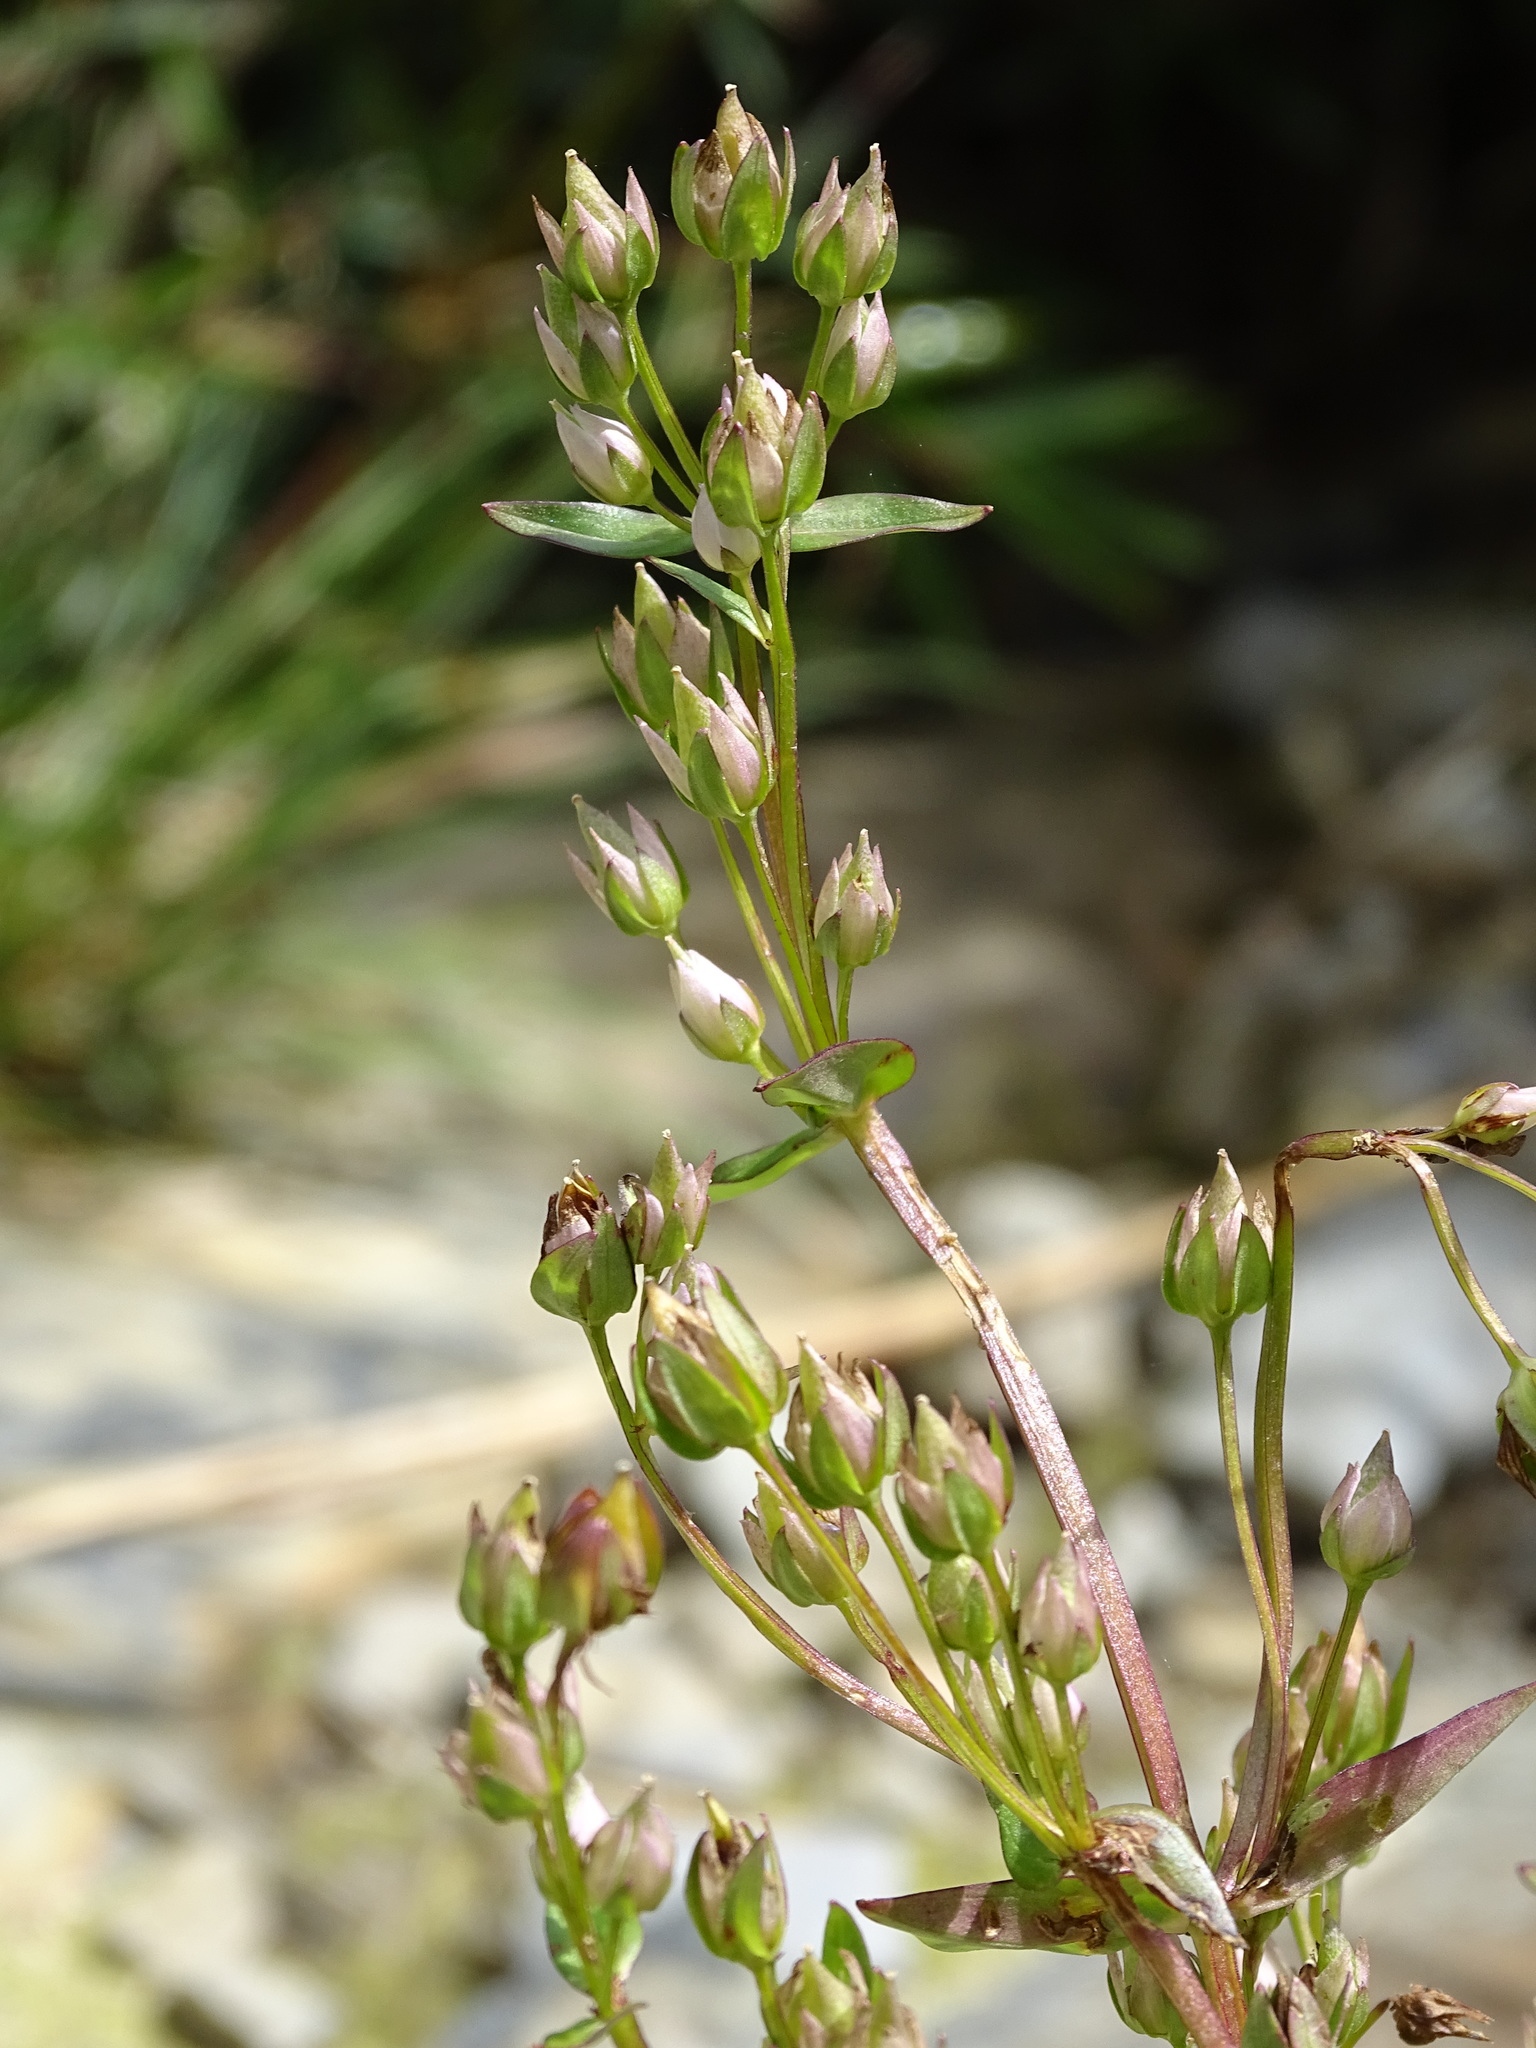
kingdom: Plantae
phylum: Tracheophyta
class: Magnoliopsida
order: Gentianales
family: Gentianaceae
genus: Swertia
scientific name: Swertia macrosperma
